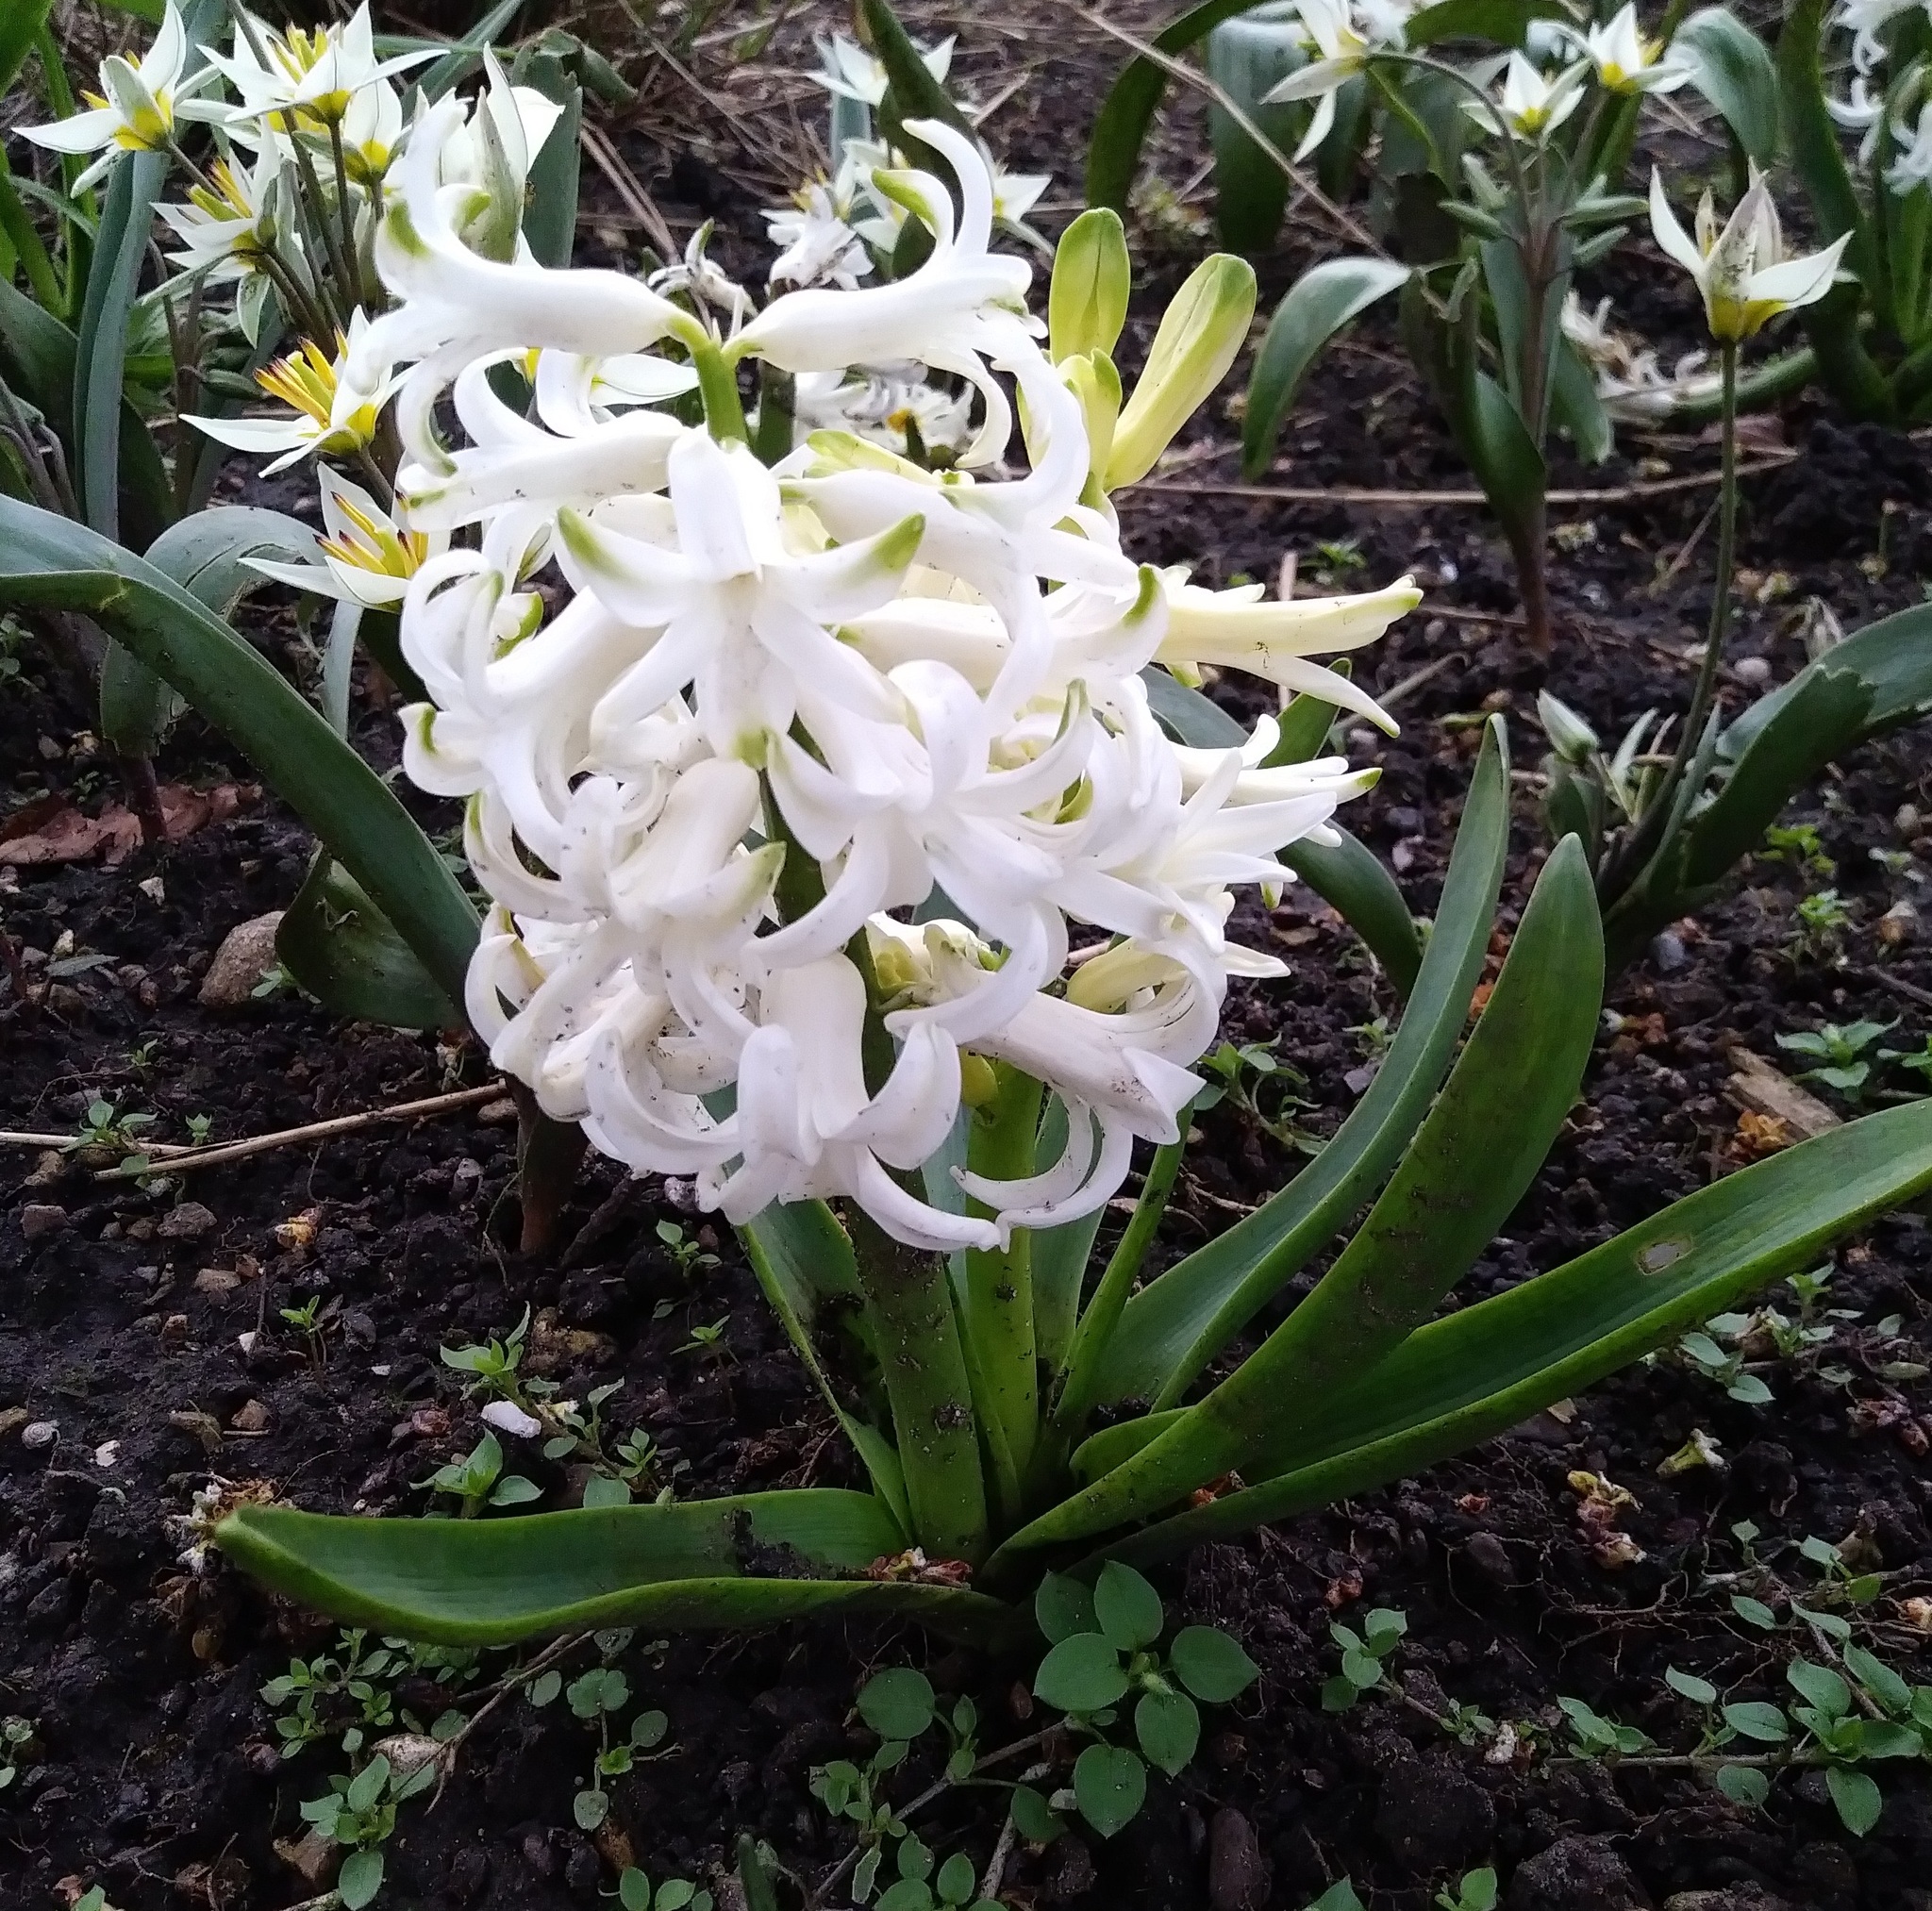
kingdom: Plantae
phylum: Tracheophyta
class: Liliopsida
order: Asparagales
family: Asparagaceae
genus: Hyacinthus
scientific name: Hyacinthus orientalis
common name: Hyacinth
